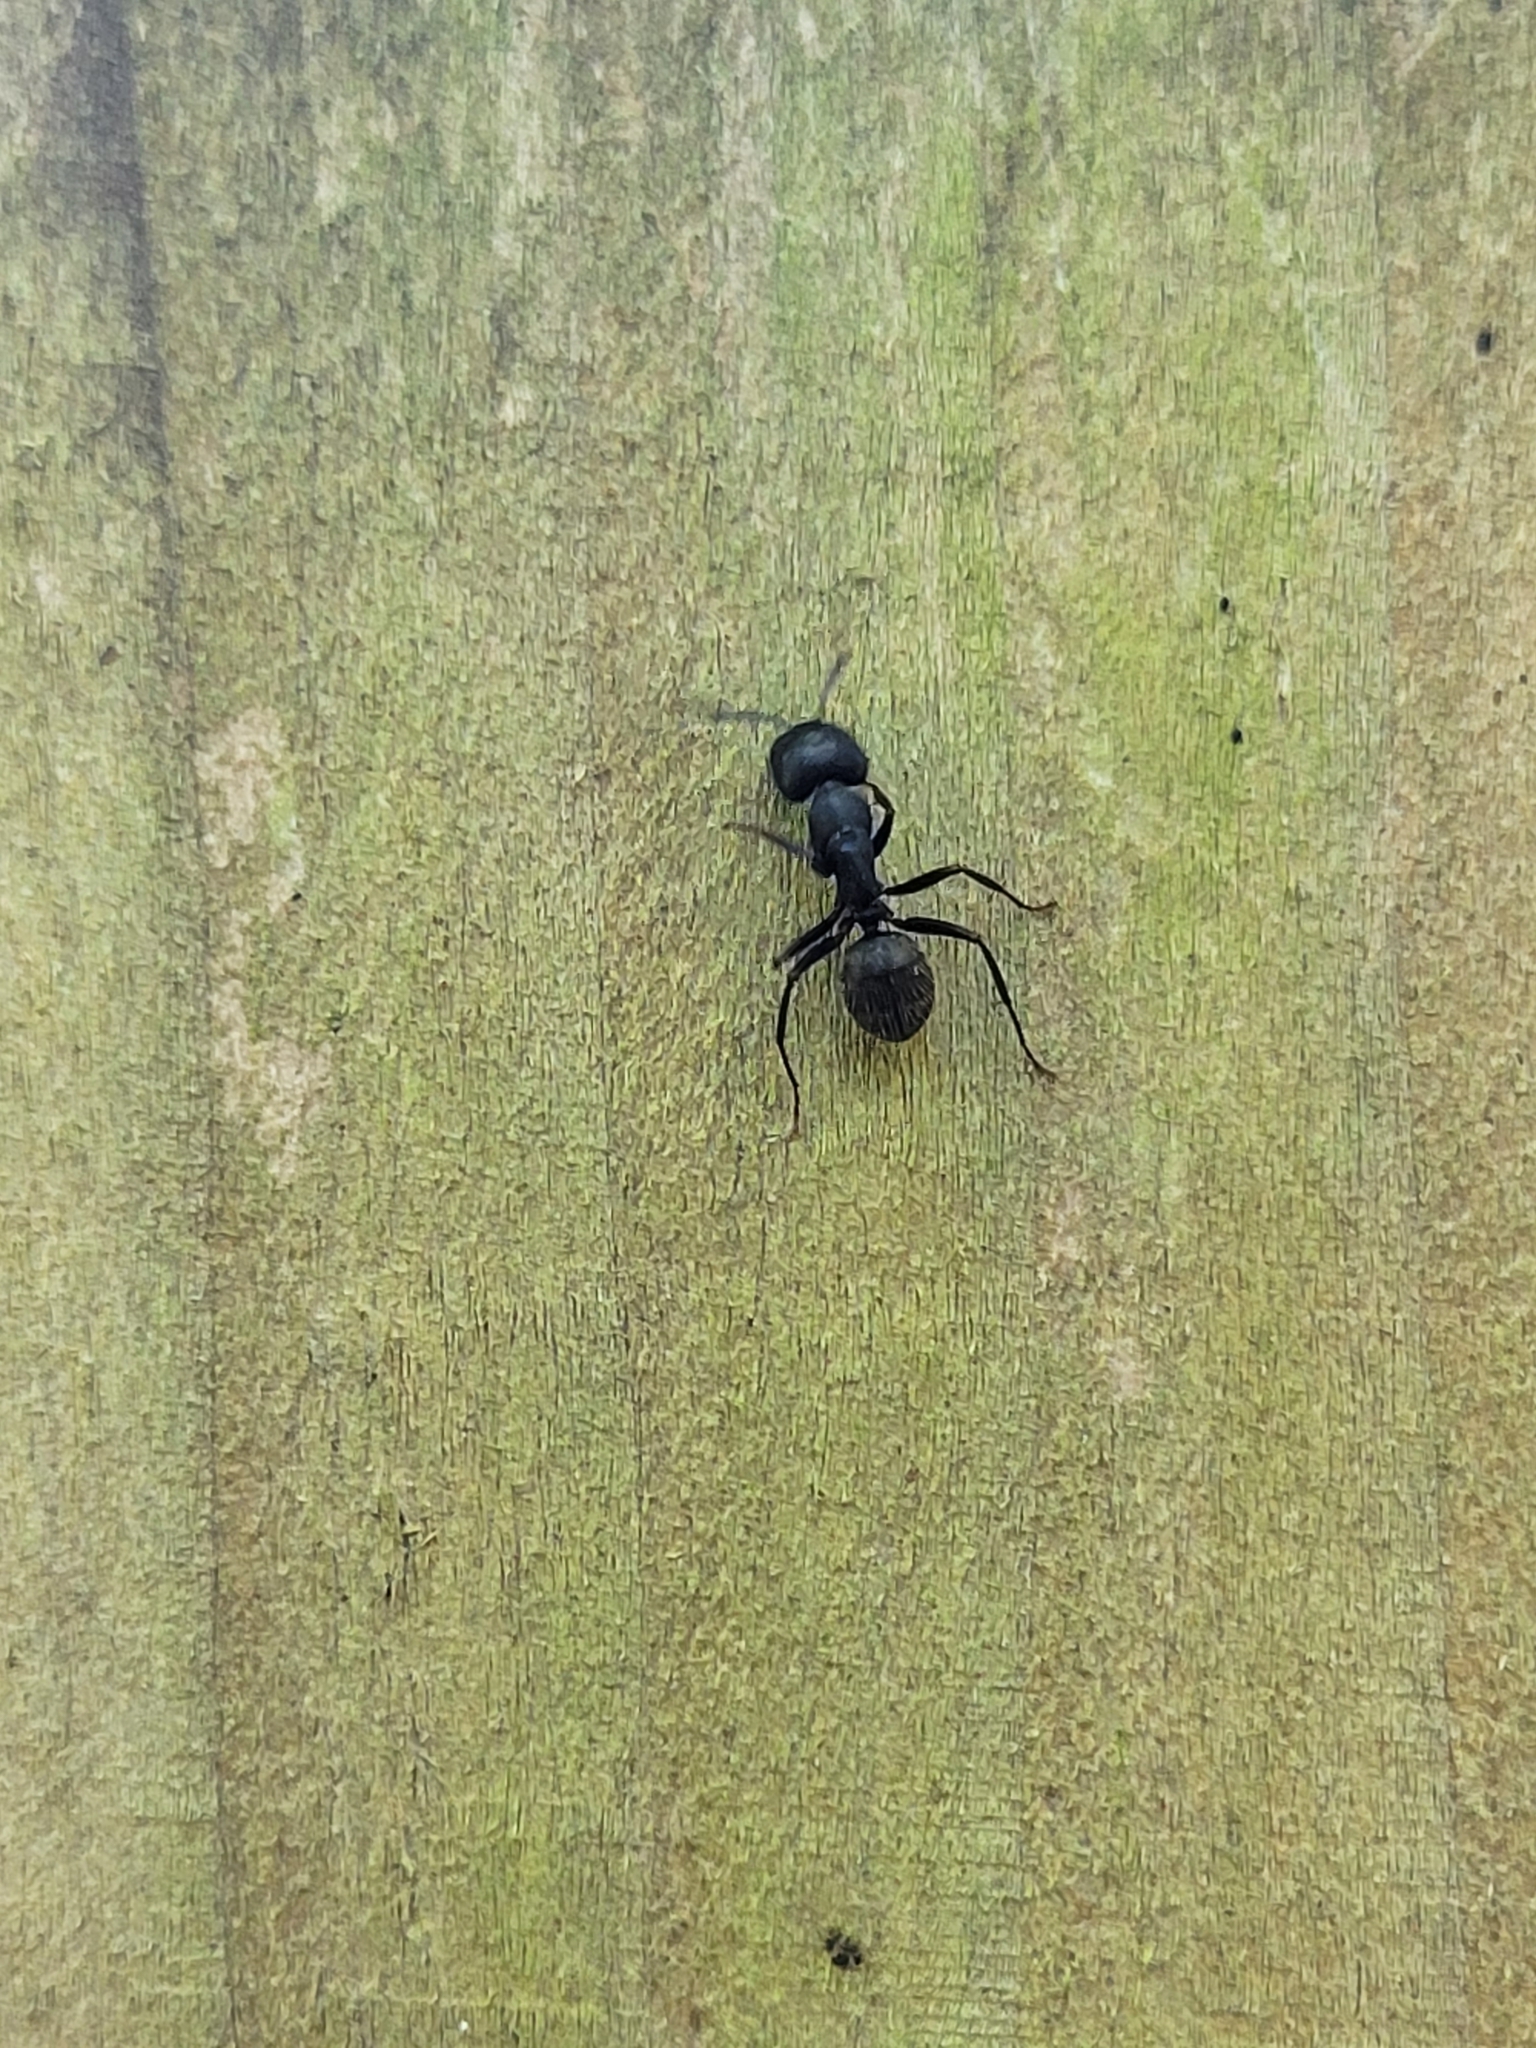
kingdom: Animalia
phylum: Arthropoda
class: Insecta
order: Hymenoptera
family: Formicidae
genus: Camponotus
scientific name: Camponotus pennsylvanicus
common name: Black carpenter ant
